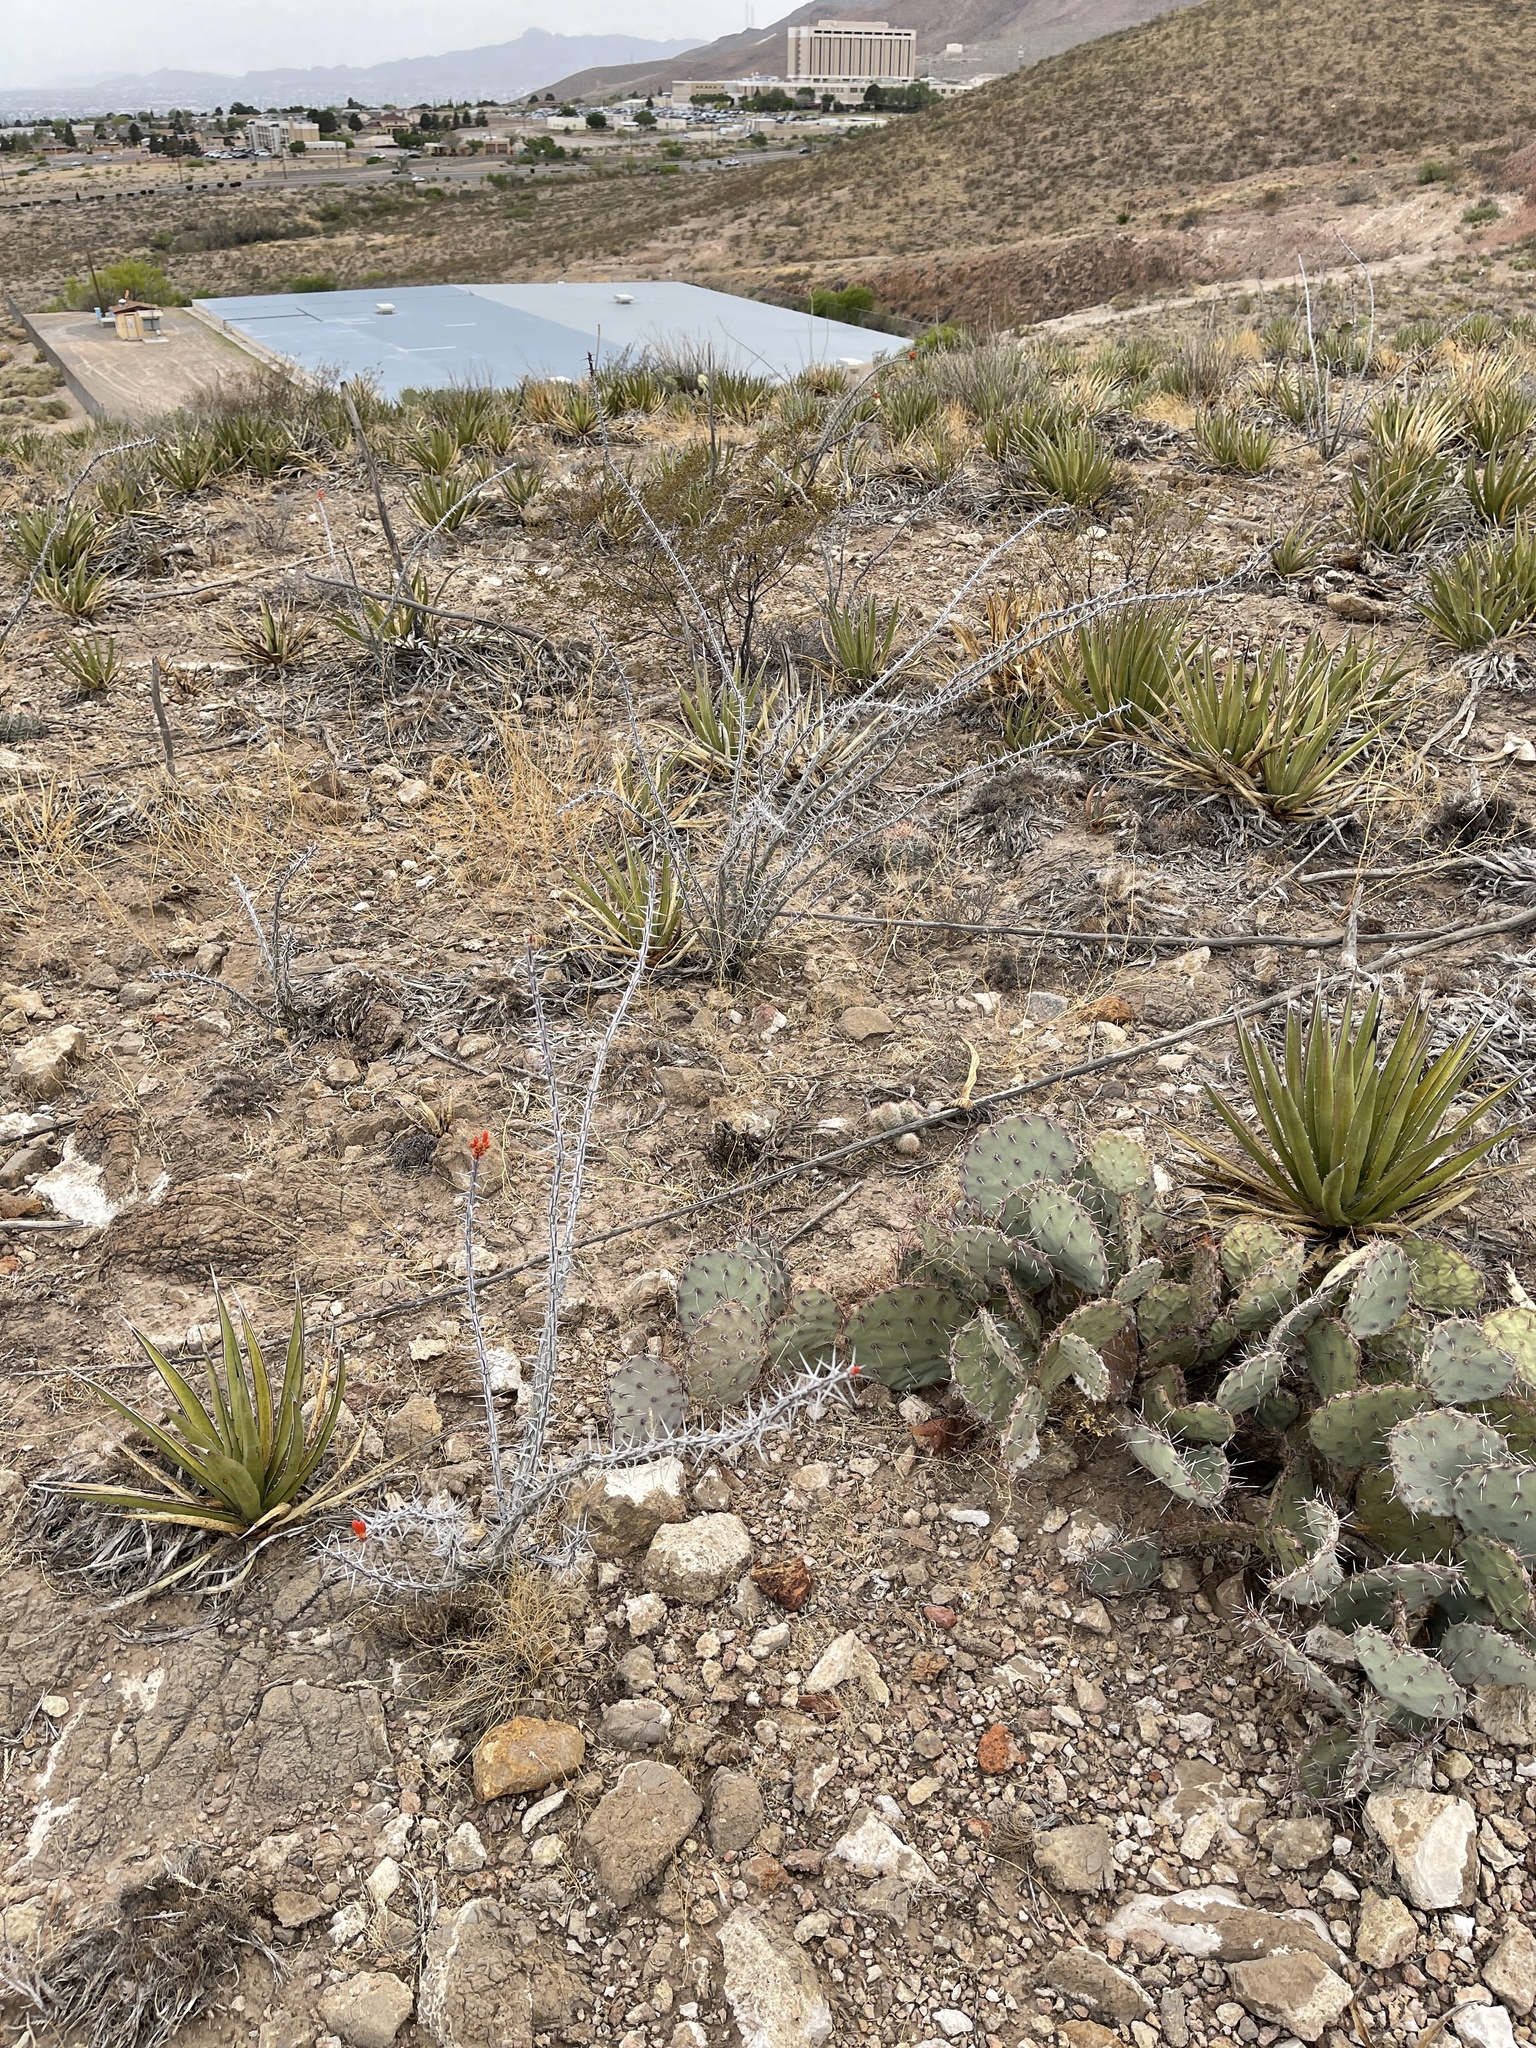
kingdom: Plantae
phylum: Tracheophyta
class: Magnoliopsida
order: Ericales
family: Fouquieriaceae
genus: Fouquieria
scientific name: Fouquieria splendens
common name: Vine-cactus
